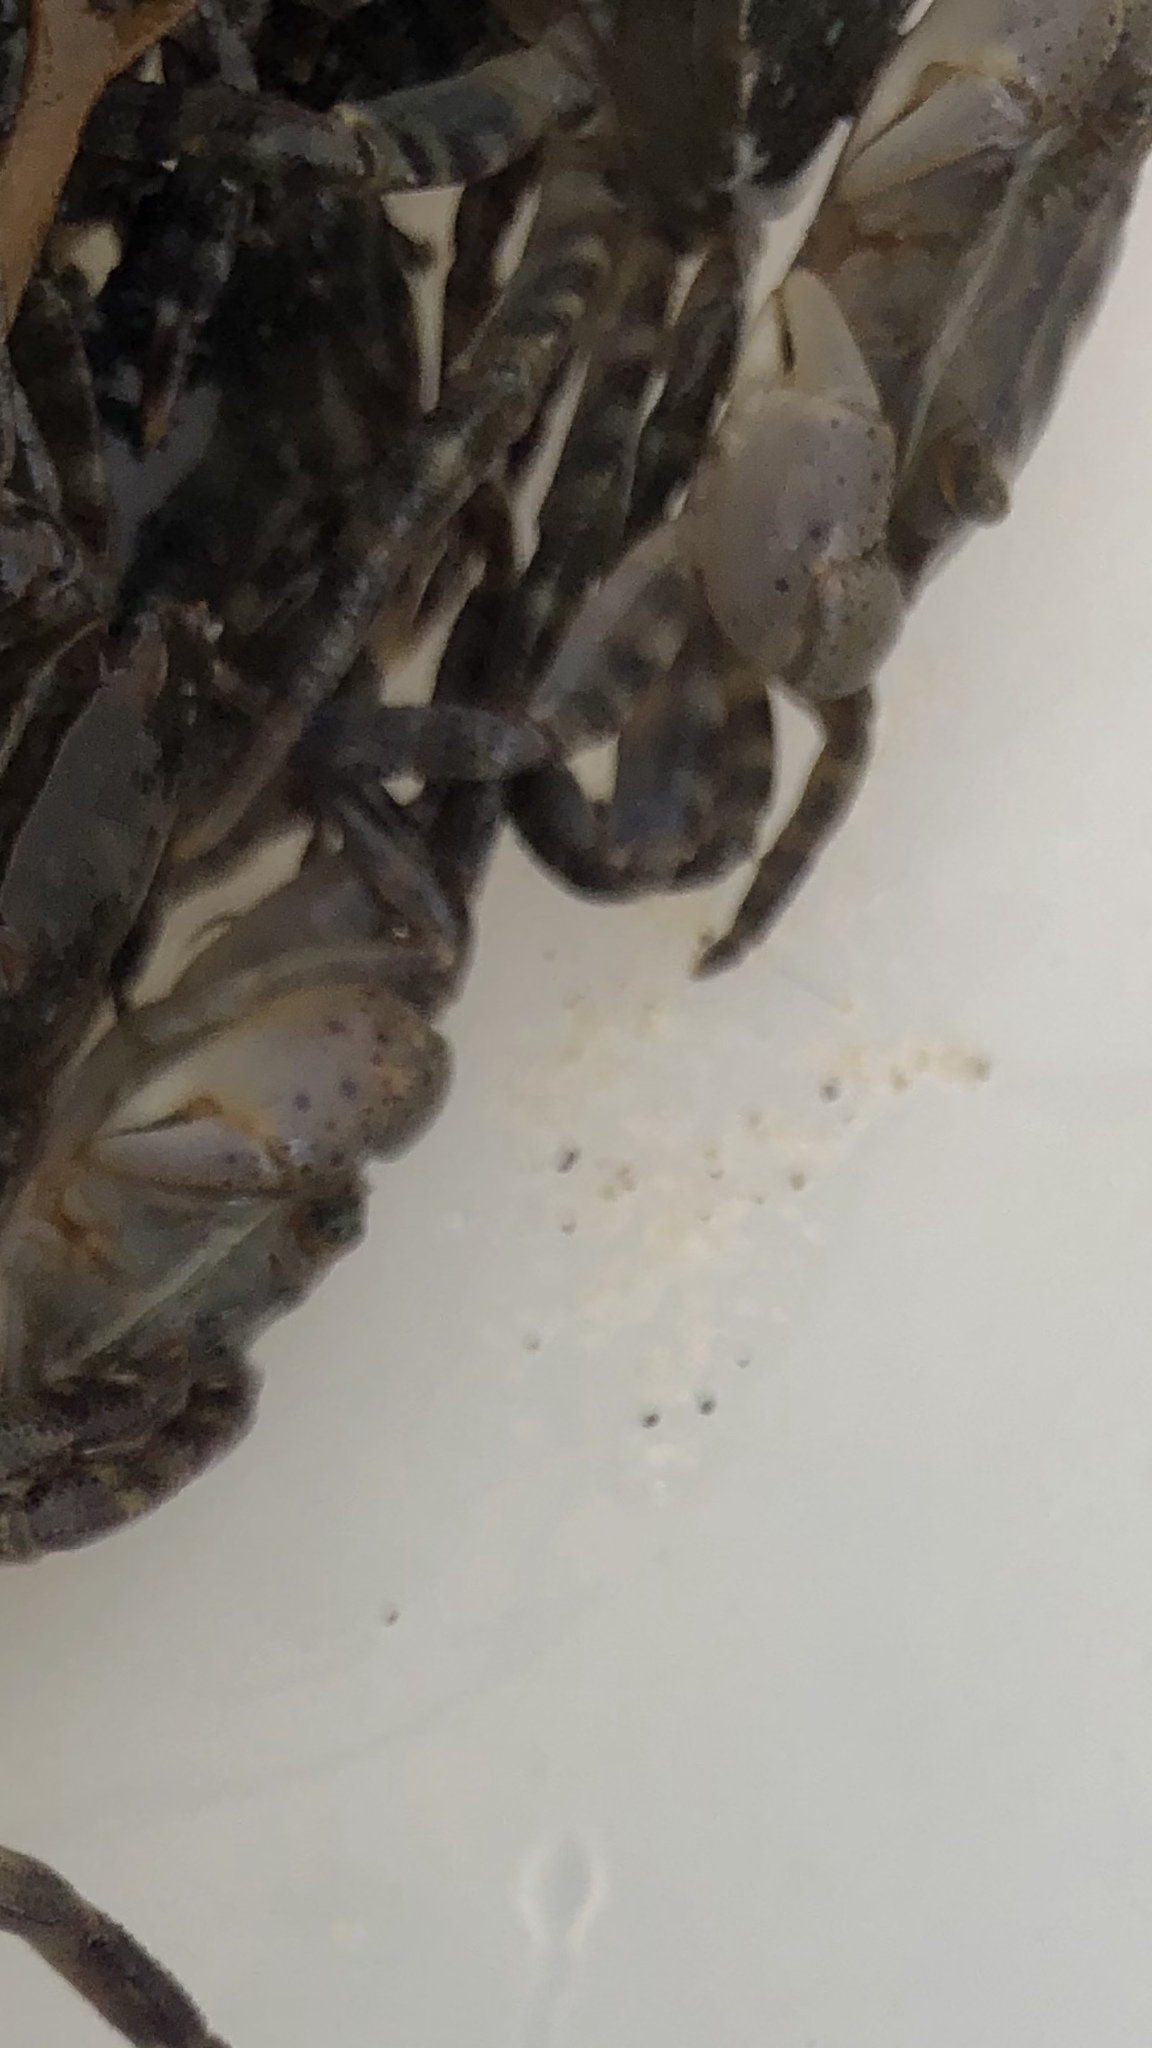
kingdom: Animalia
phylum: Arthropoda
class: Malacostraca
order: Decapoda
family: Varunidae
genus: Hemigrapsus
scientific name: Hemigrapsus sanguineus
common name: Asian shore crab
